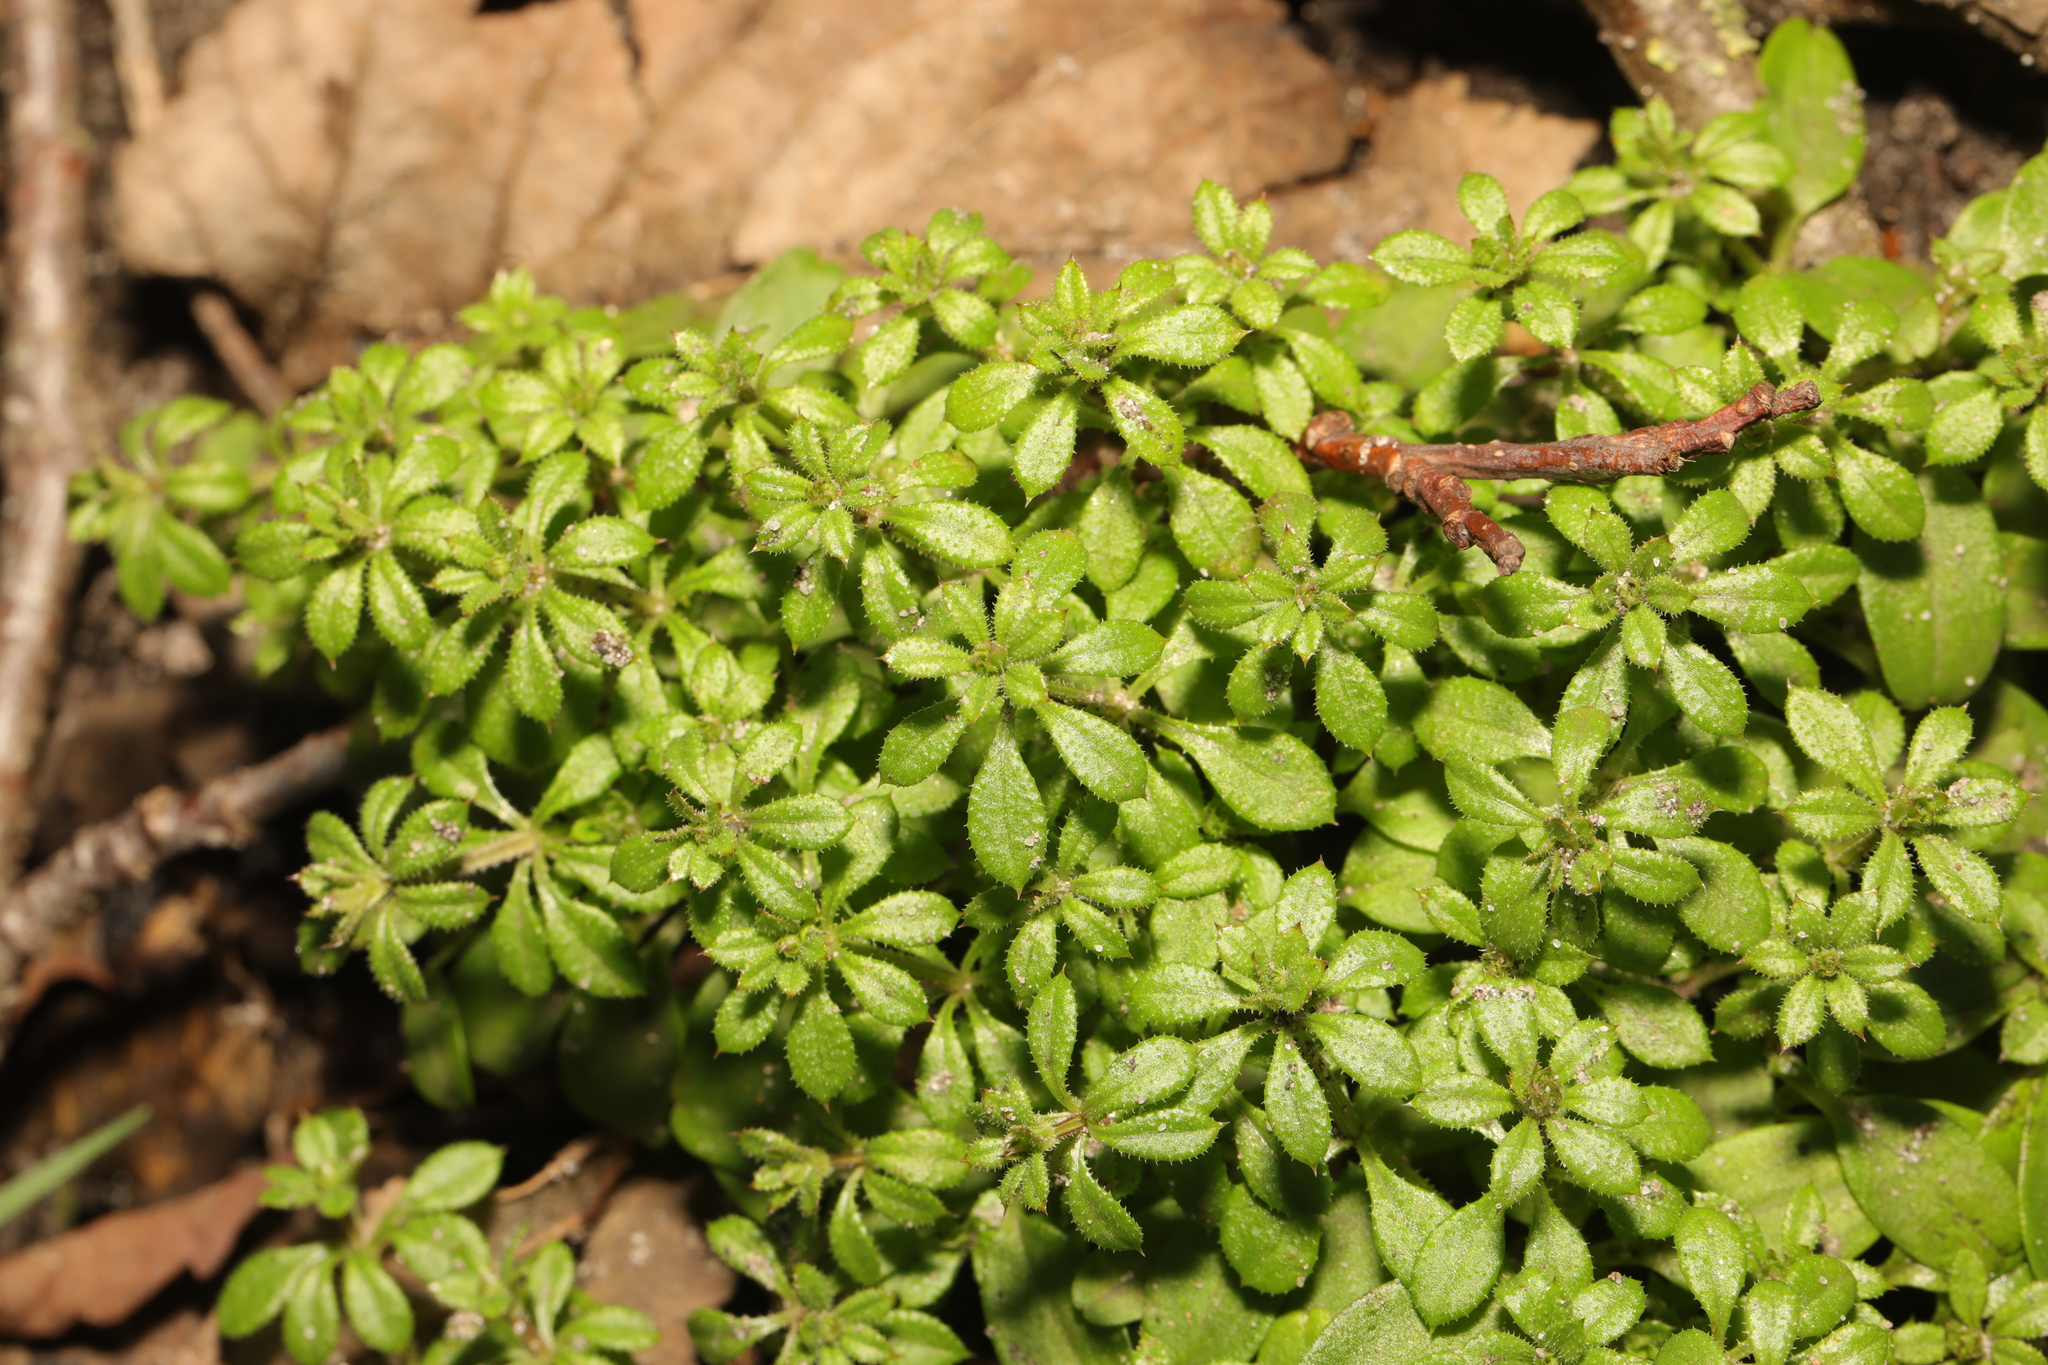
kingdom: Plantae
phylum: Tracheophyta
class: Magnoliopsida
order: Gentianales
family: Rubiaceae
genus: Galium
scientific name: Galium aparine
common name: Cleavers
